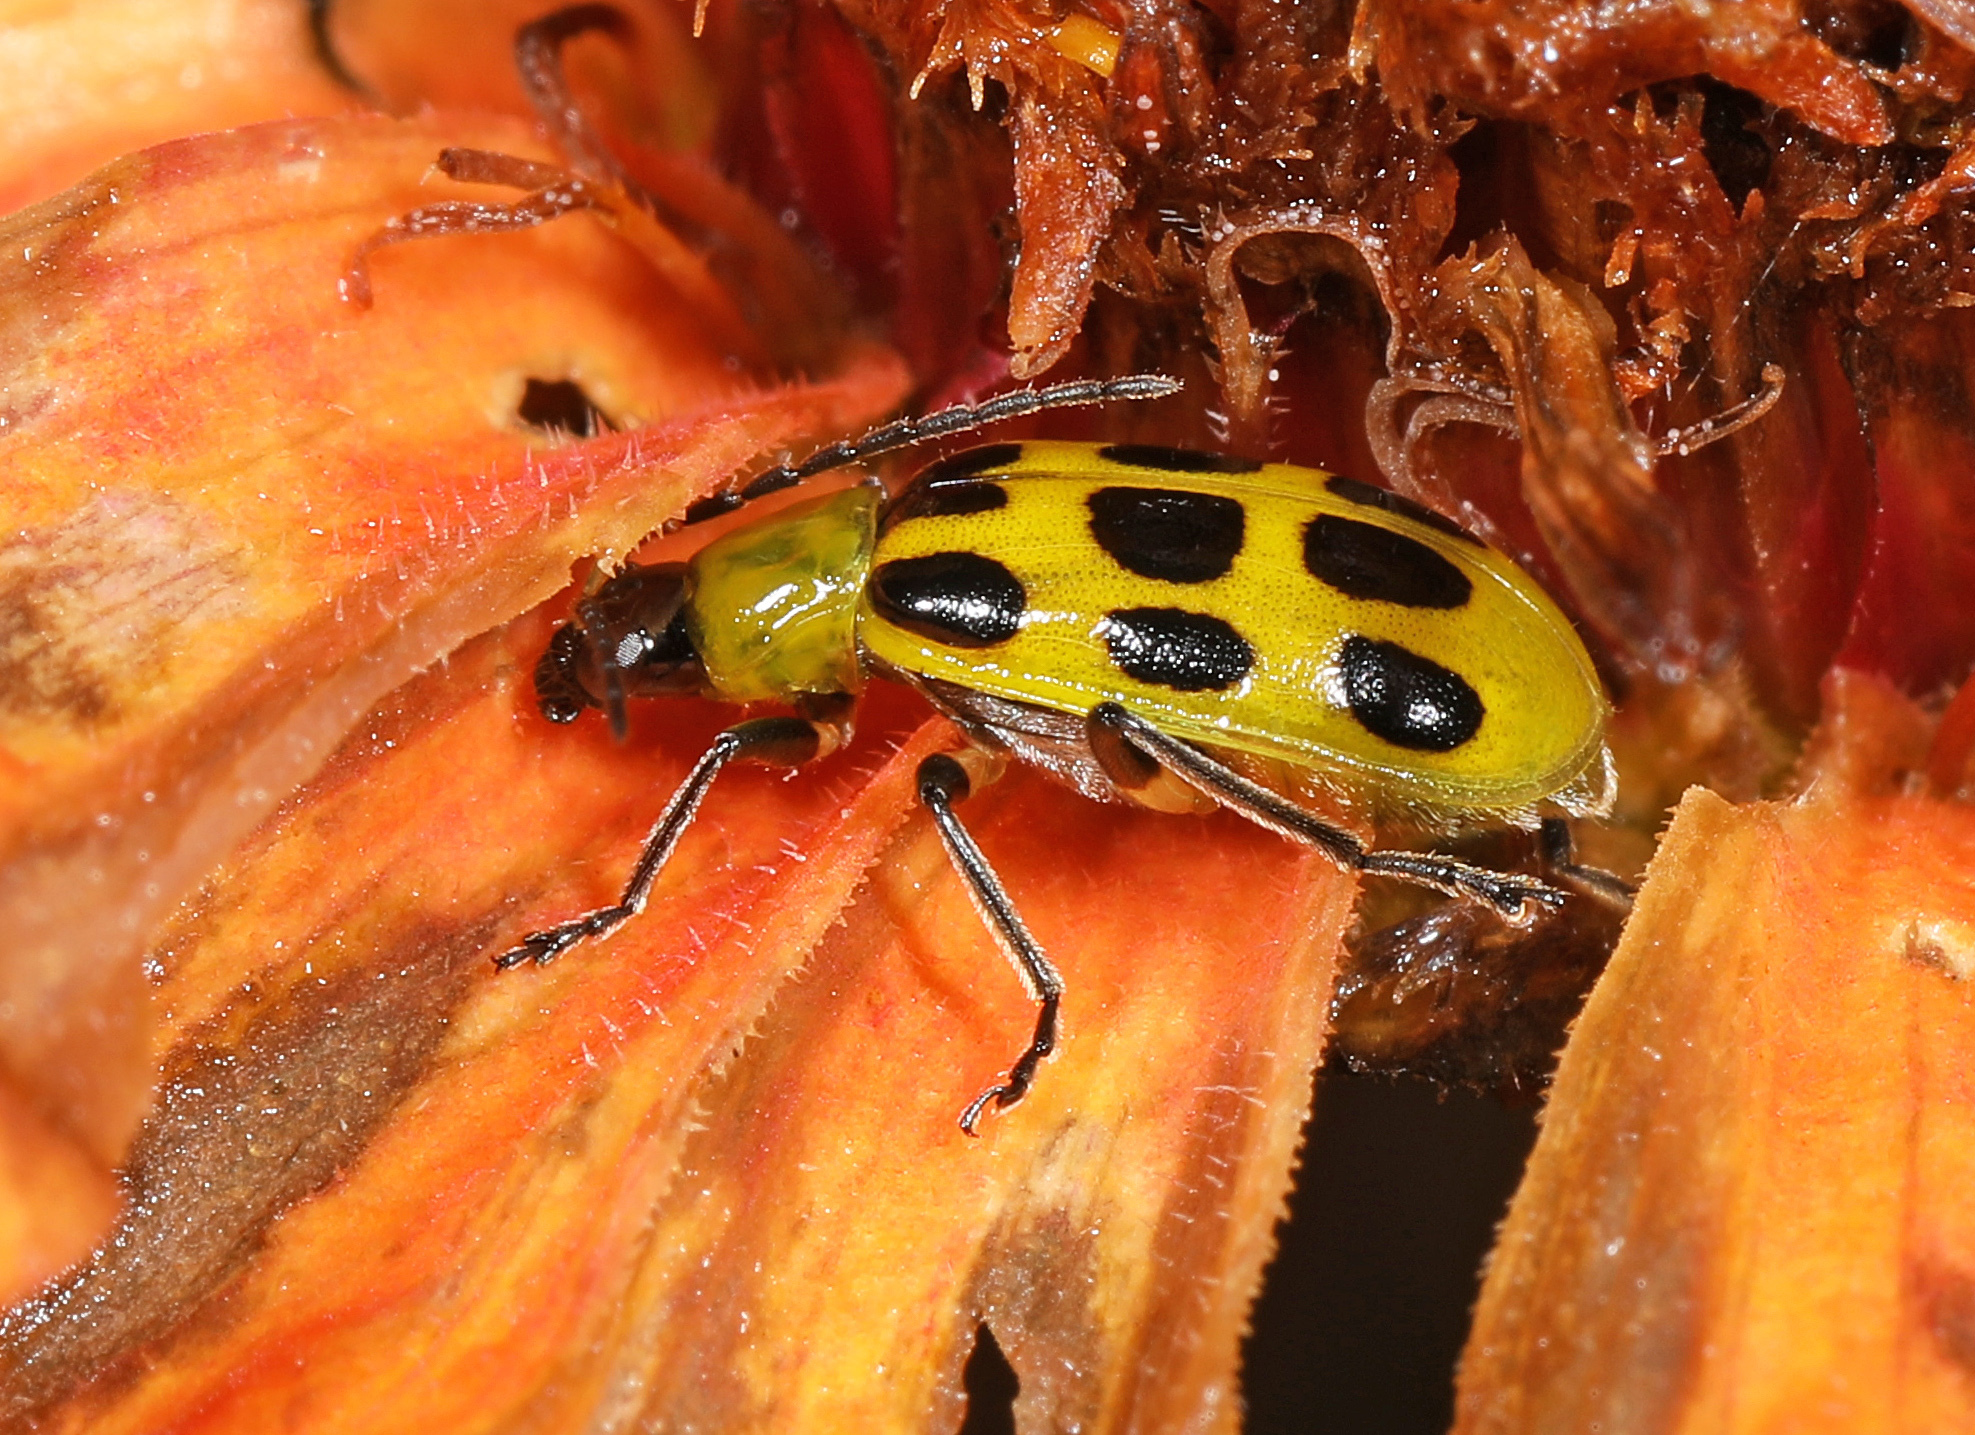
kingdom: Animalia
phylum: Arthropoda
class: Insecta
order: Coleoptera
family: Chrysomelidae
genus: Diabrotica
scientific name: Diabrotica undecimpunctata
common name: Spotted cucumber beetle
